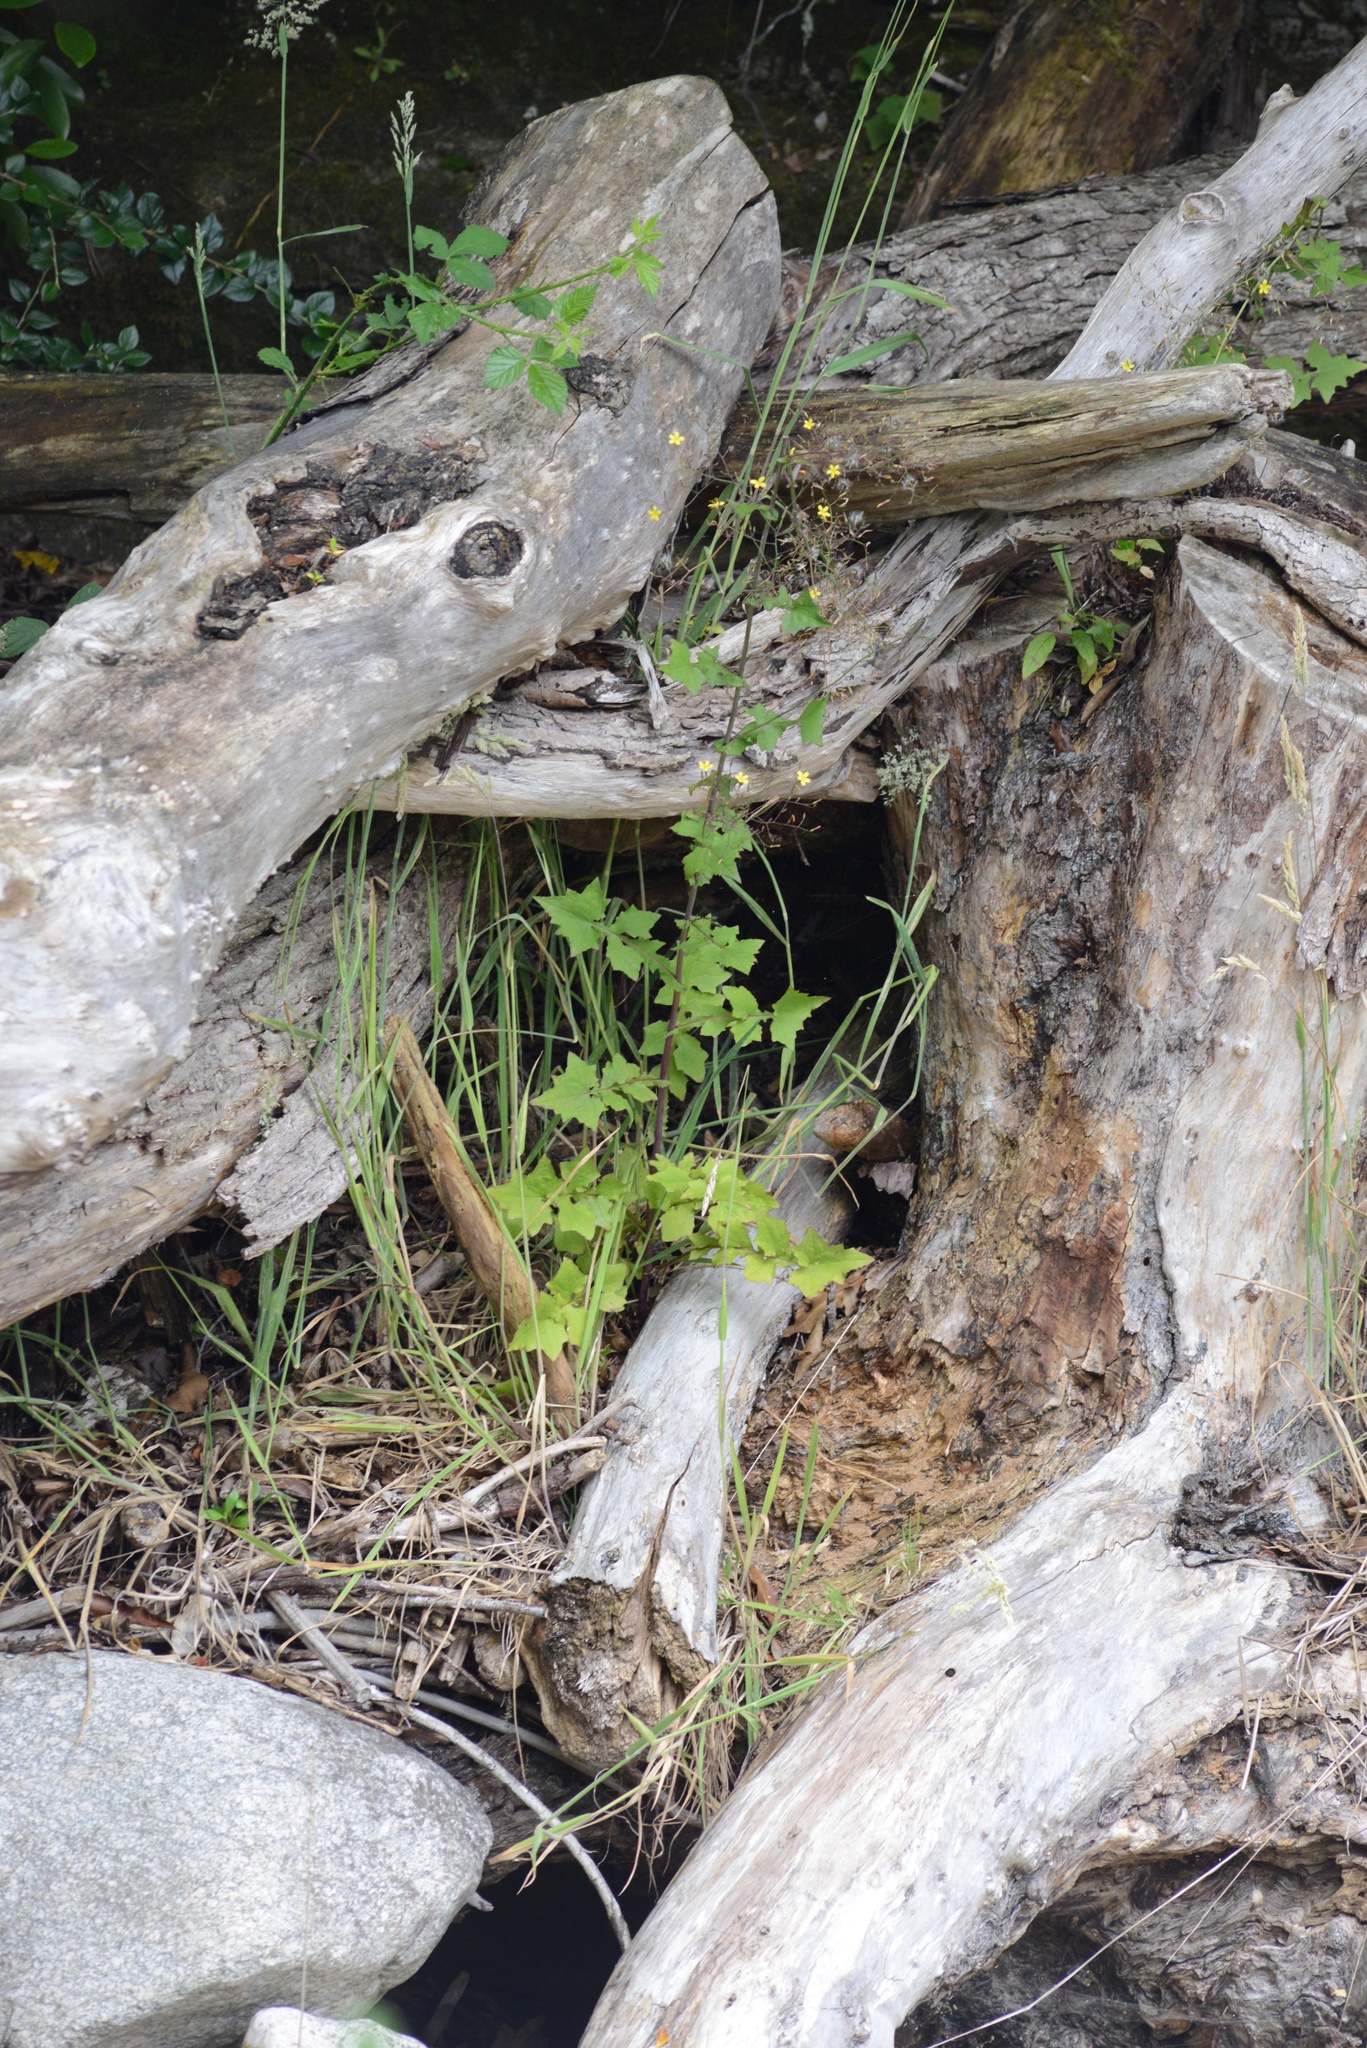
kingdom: Plantae
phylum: Tracheophyta
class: Magnoliopsida
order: Asterales
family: Asteraceae
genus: Mycelis
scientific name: Mycelis muralis
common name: Wall lettuce
